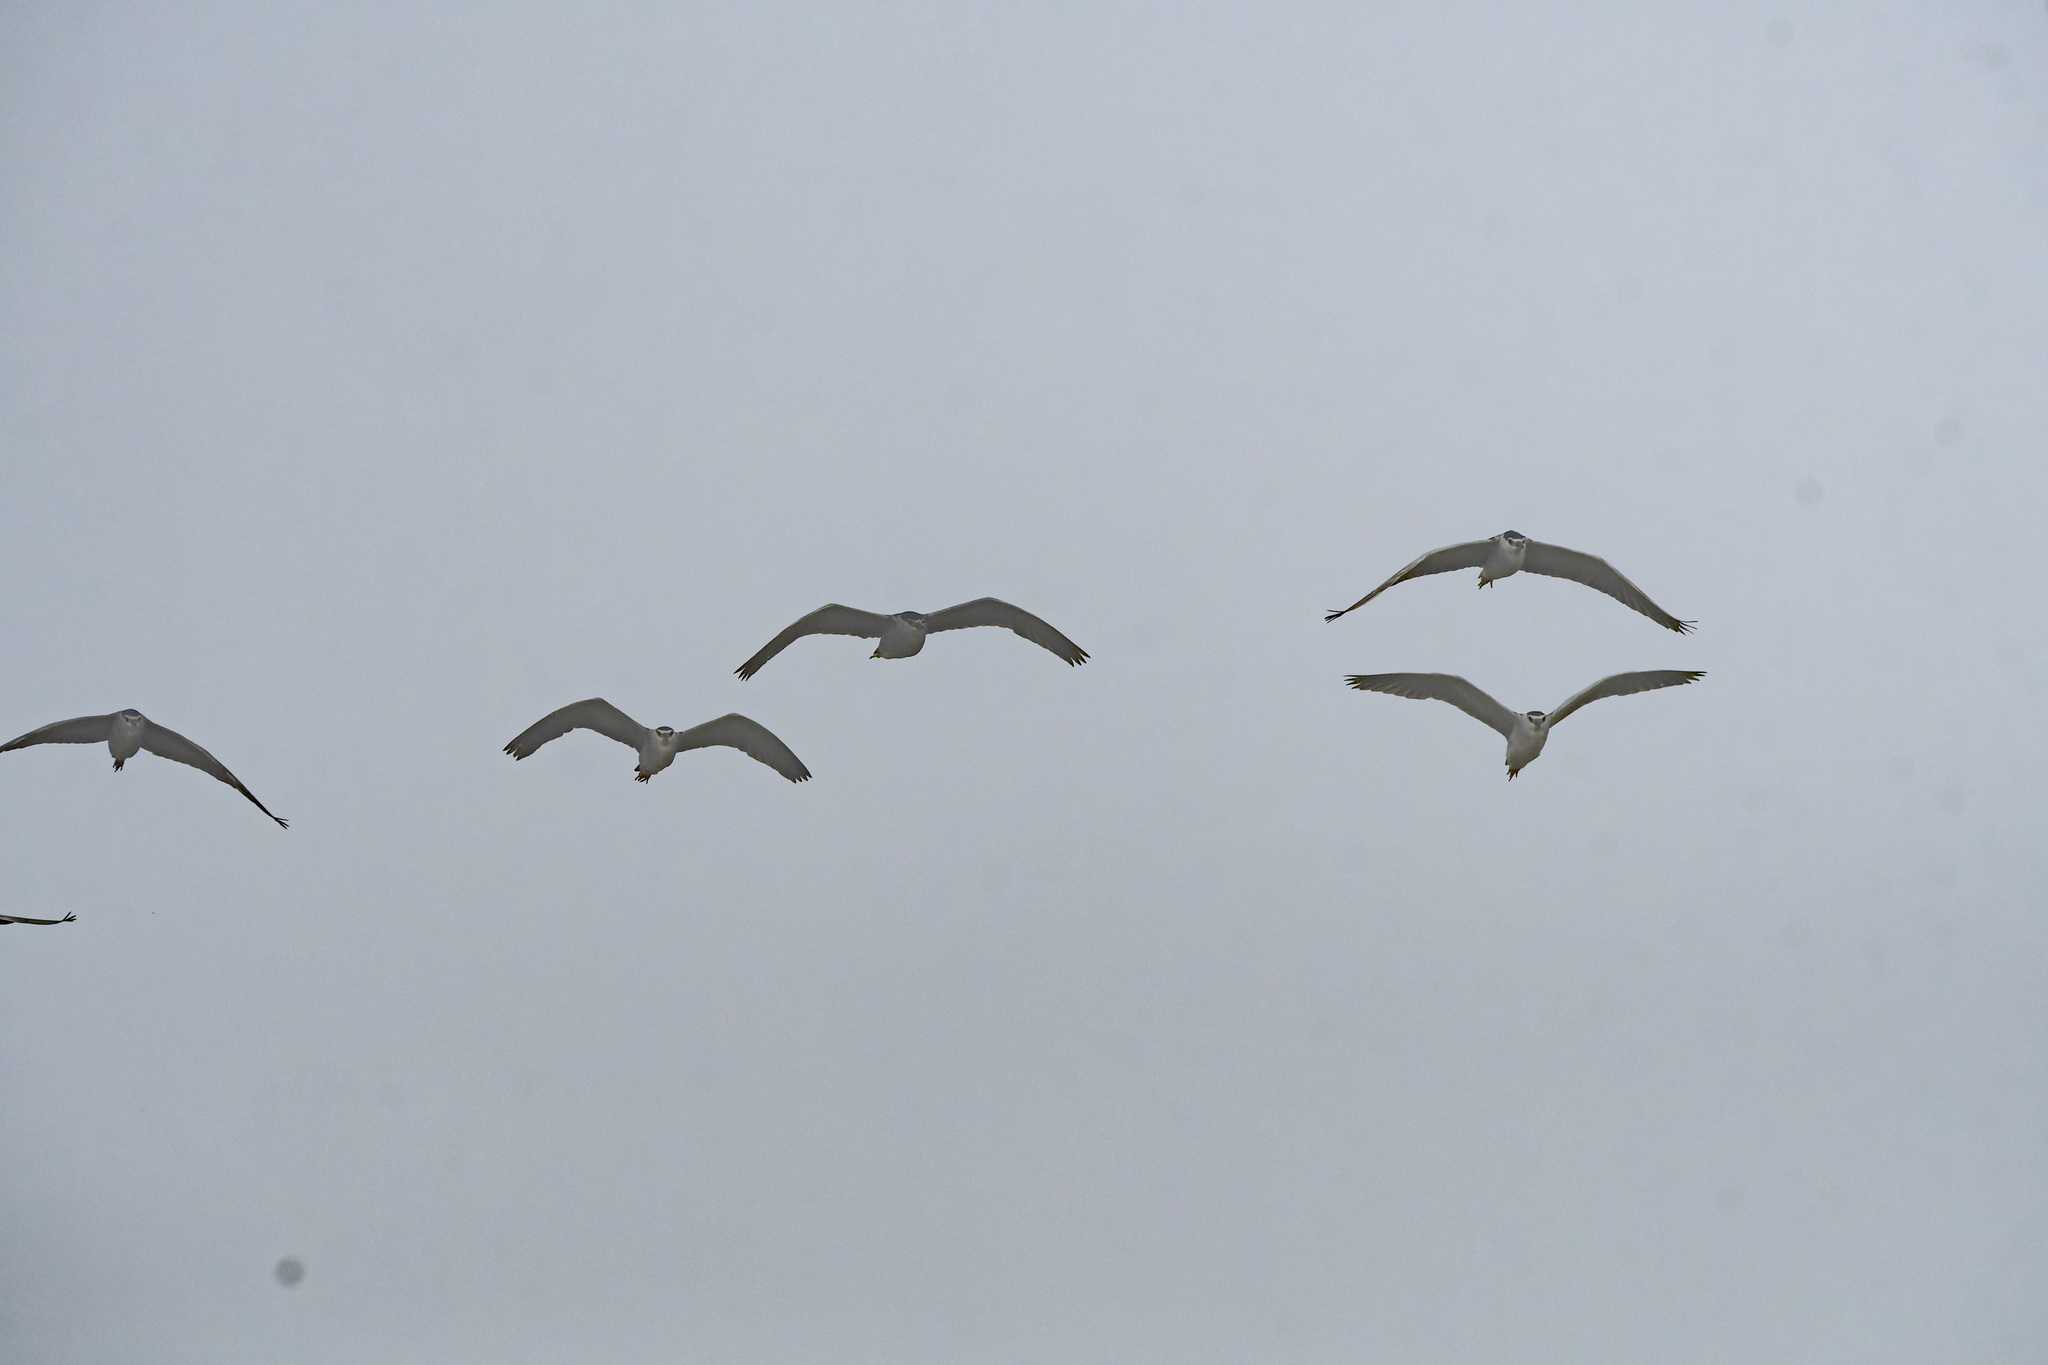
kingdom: Animalia
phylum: Chordata
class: Aves
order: Pelecaniformes
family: Ardeidae
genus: Nycticorax
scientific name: Nycticorax nycticorax
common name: Black-crowned night heron
